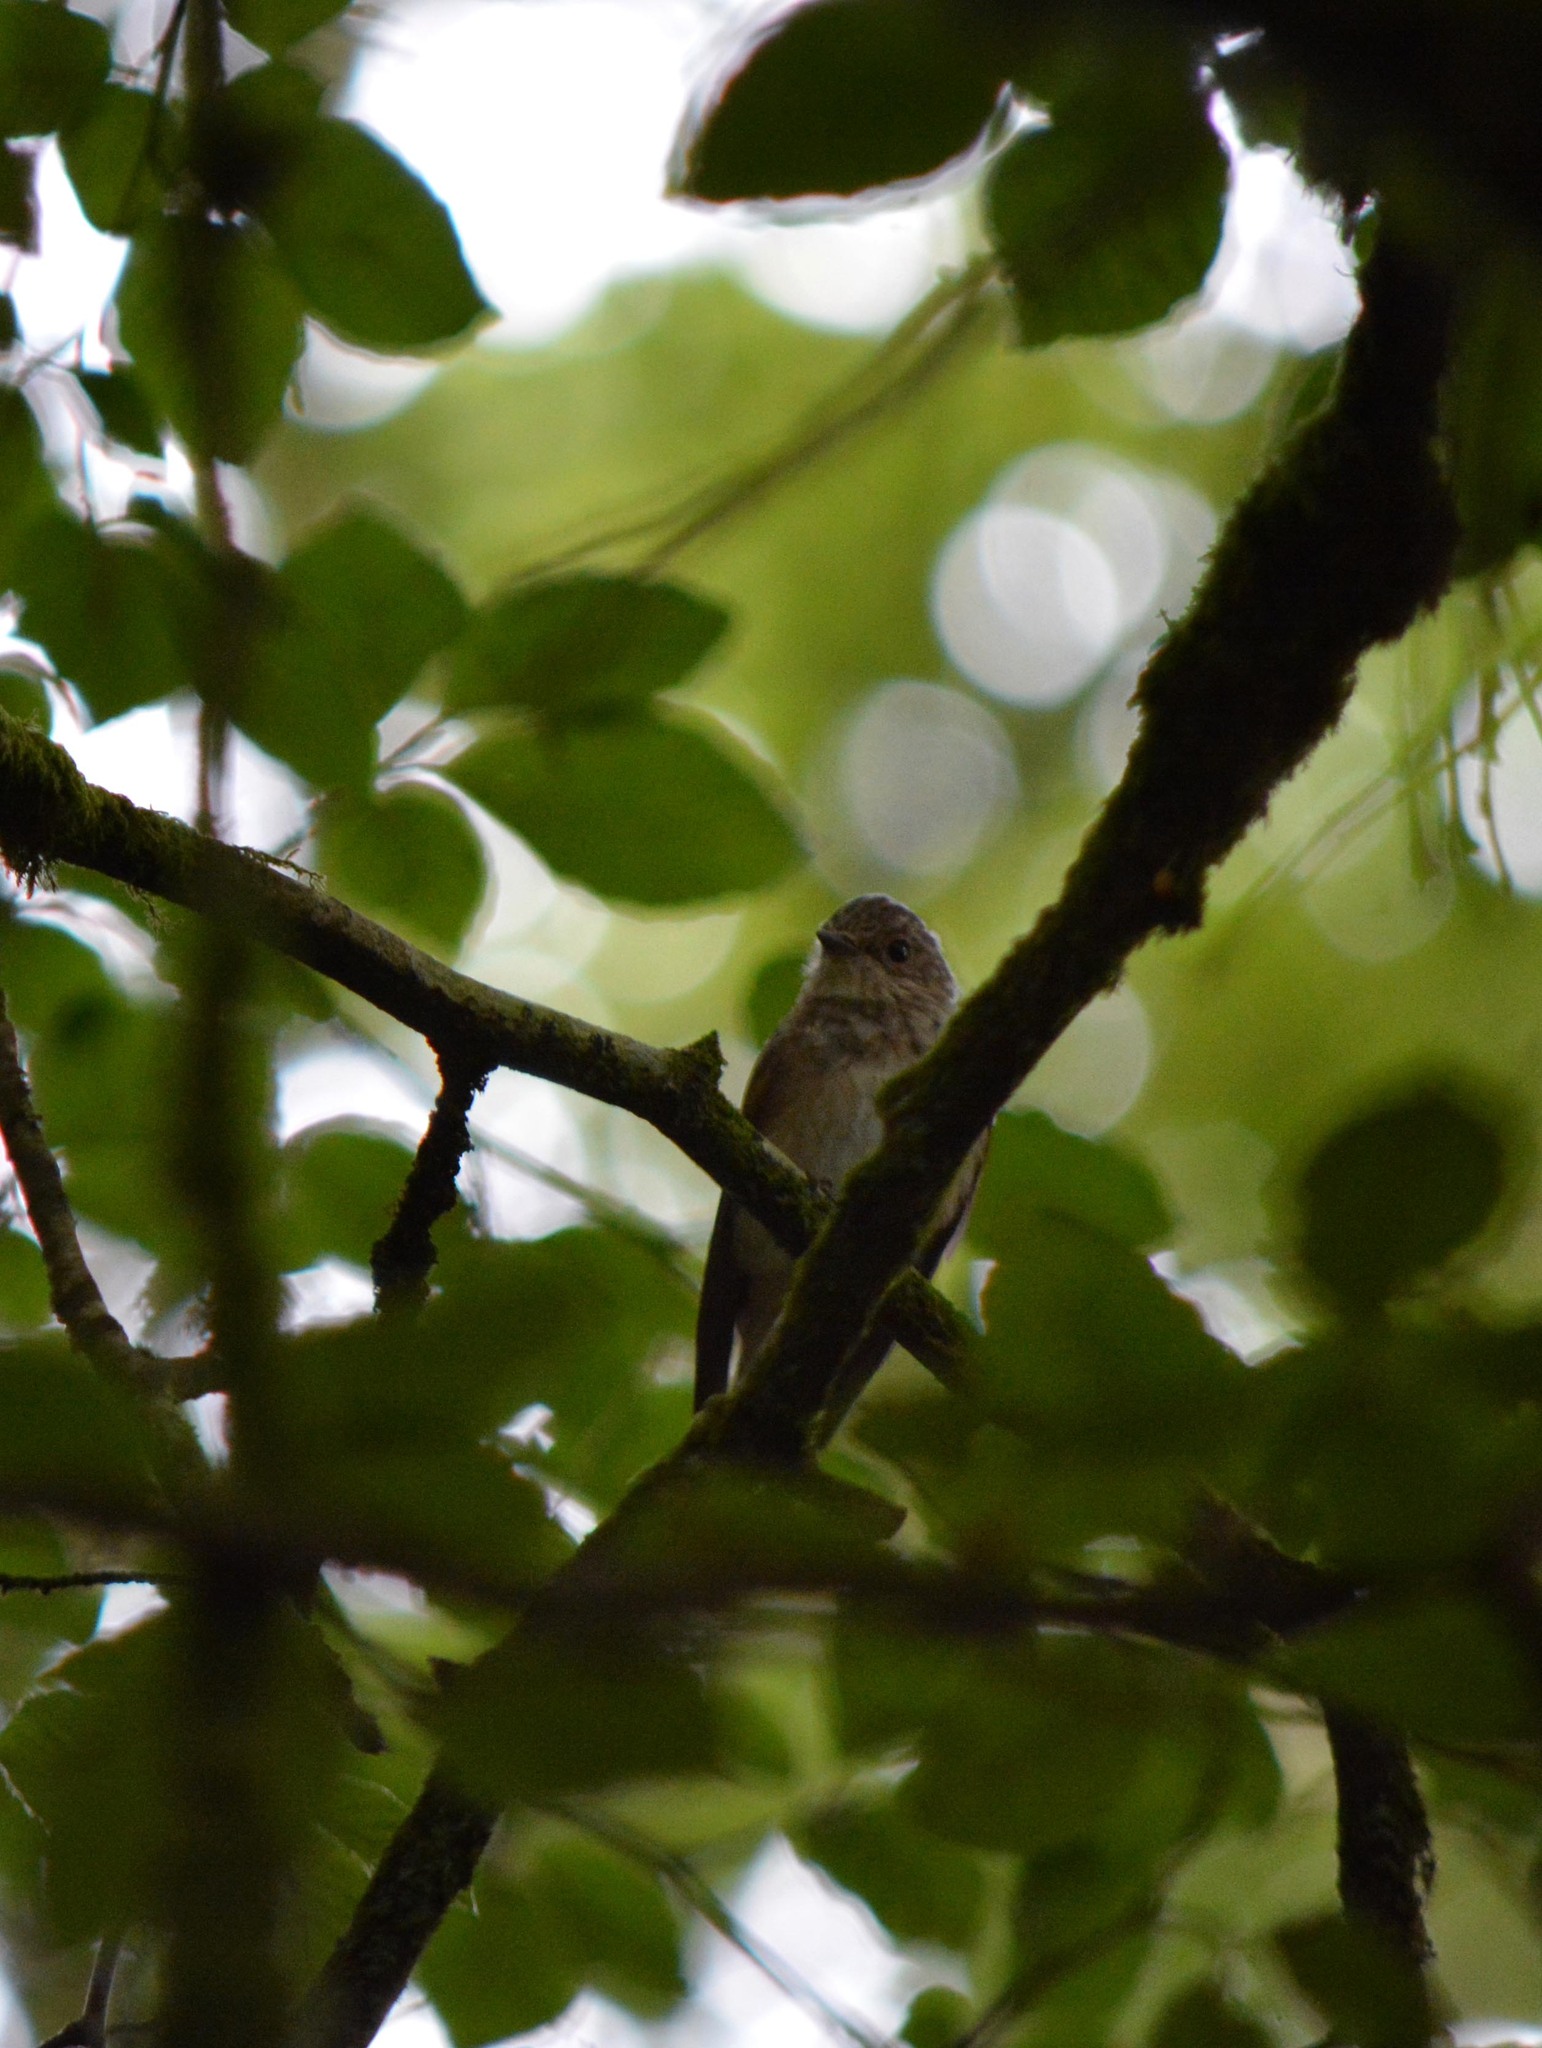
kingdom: Animalia
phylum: Chordata
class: Aves
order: Passeriformes
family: Muscicapidae
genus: Muscicapa
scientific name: Muscicapa striata
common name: Spotted flycatcher
